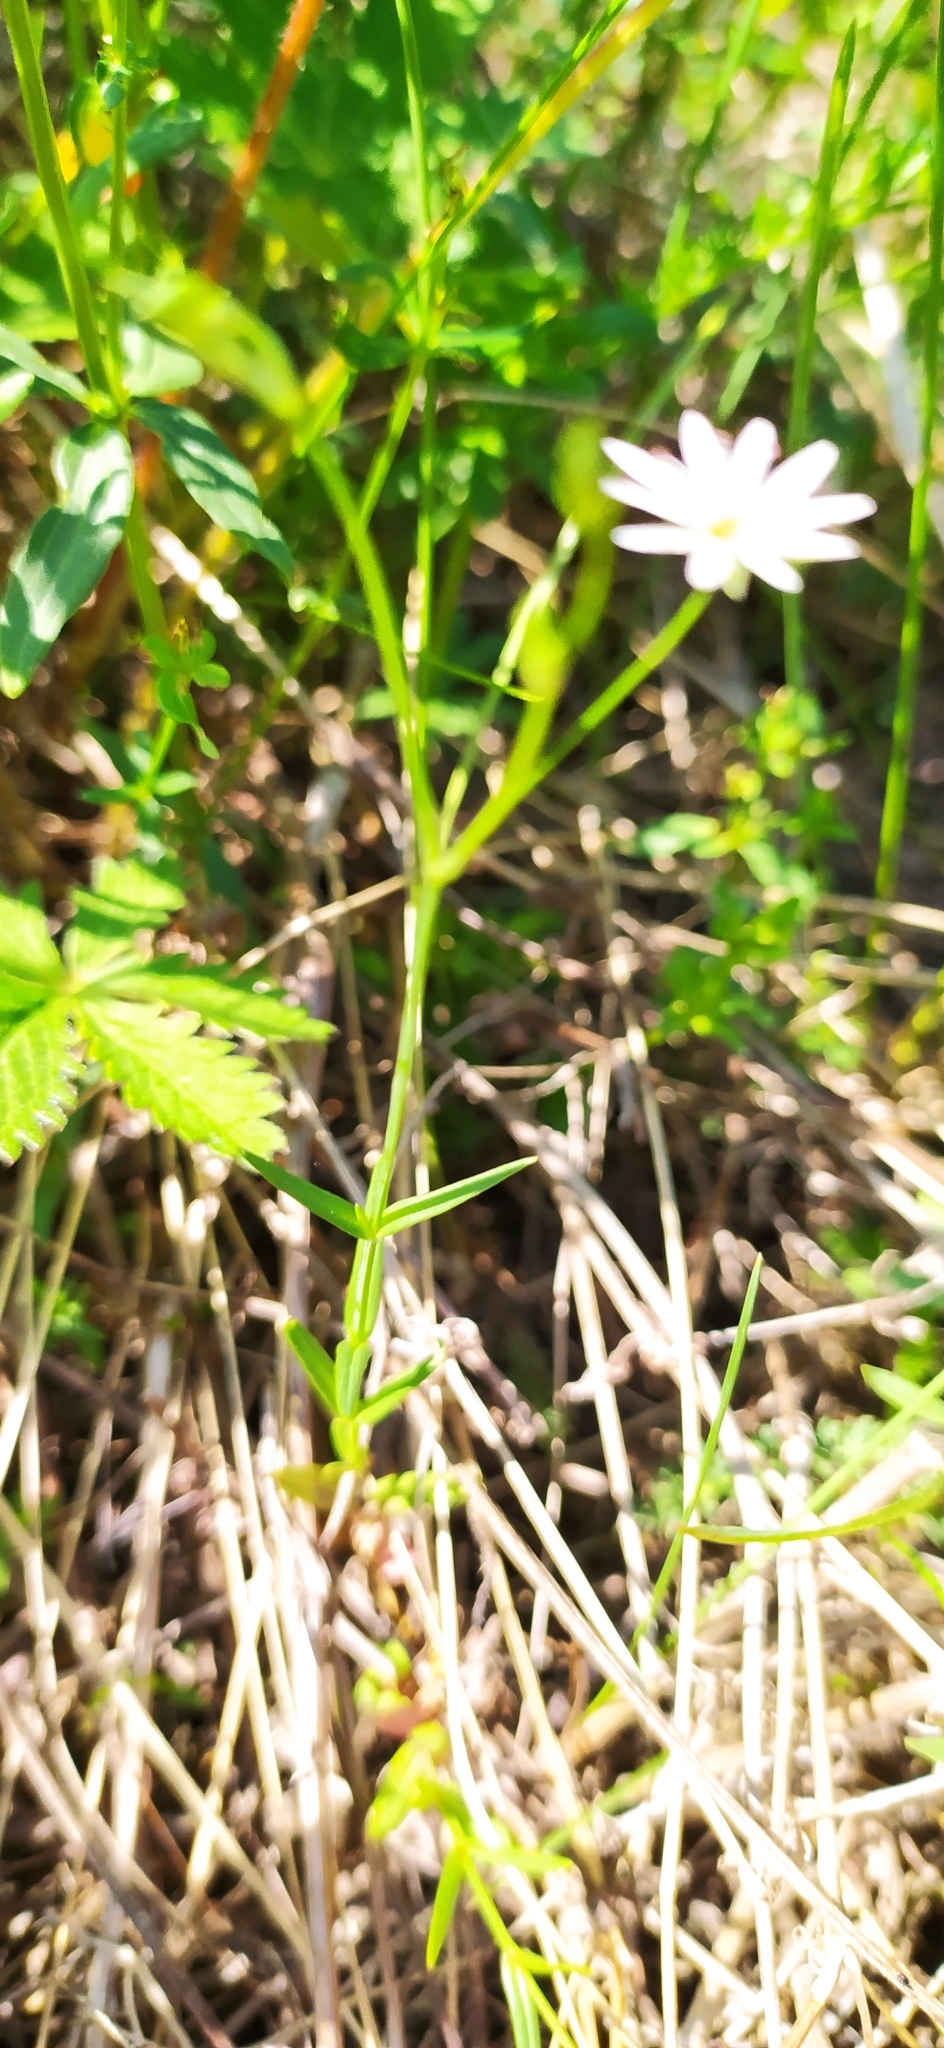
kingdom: Plantae
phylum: Tracheophyta
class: Magnoliopsida
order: Caryophyllales
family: Caryophyllaceae
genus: Stellaria
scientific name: Stellaria graminea
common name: Grass-like starwort
